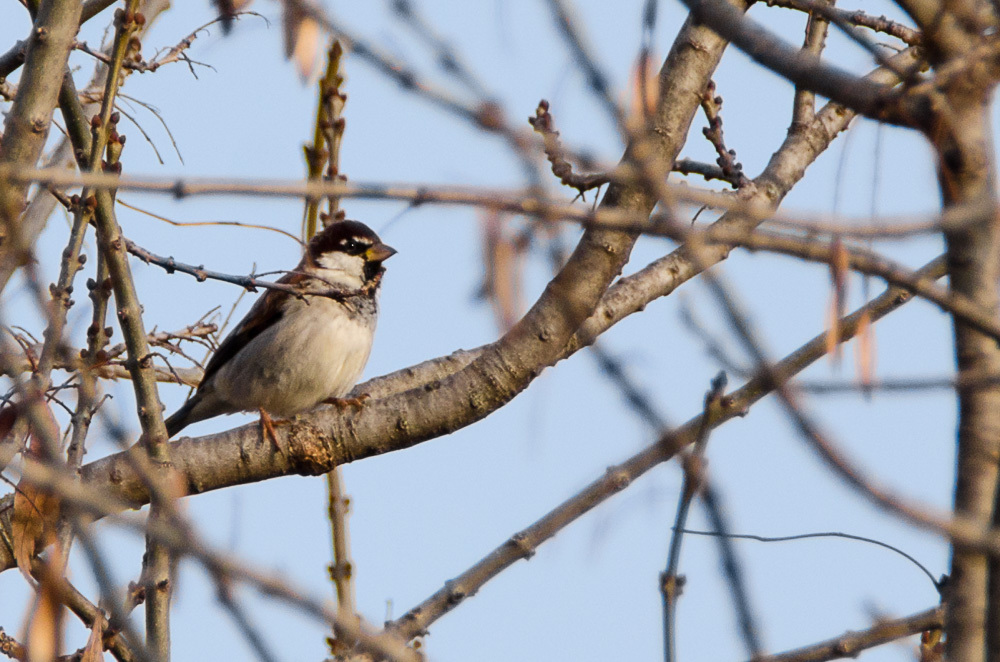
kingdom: Animalia
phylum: Chordata
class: Aves
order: Passeriformes
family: Passeridae
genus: Passer
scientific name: Passer italiae
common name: Italian sparrow
